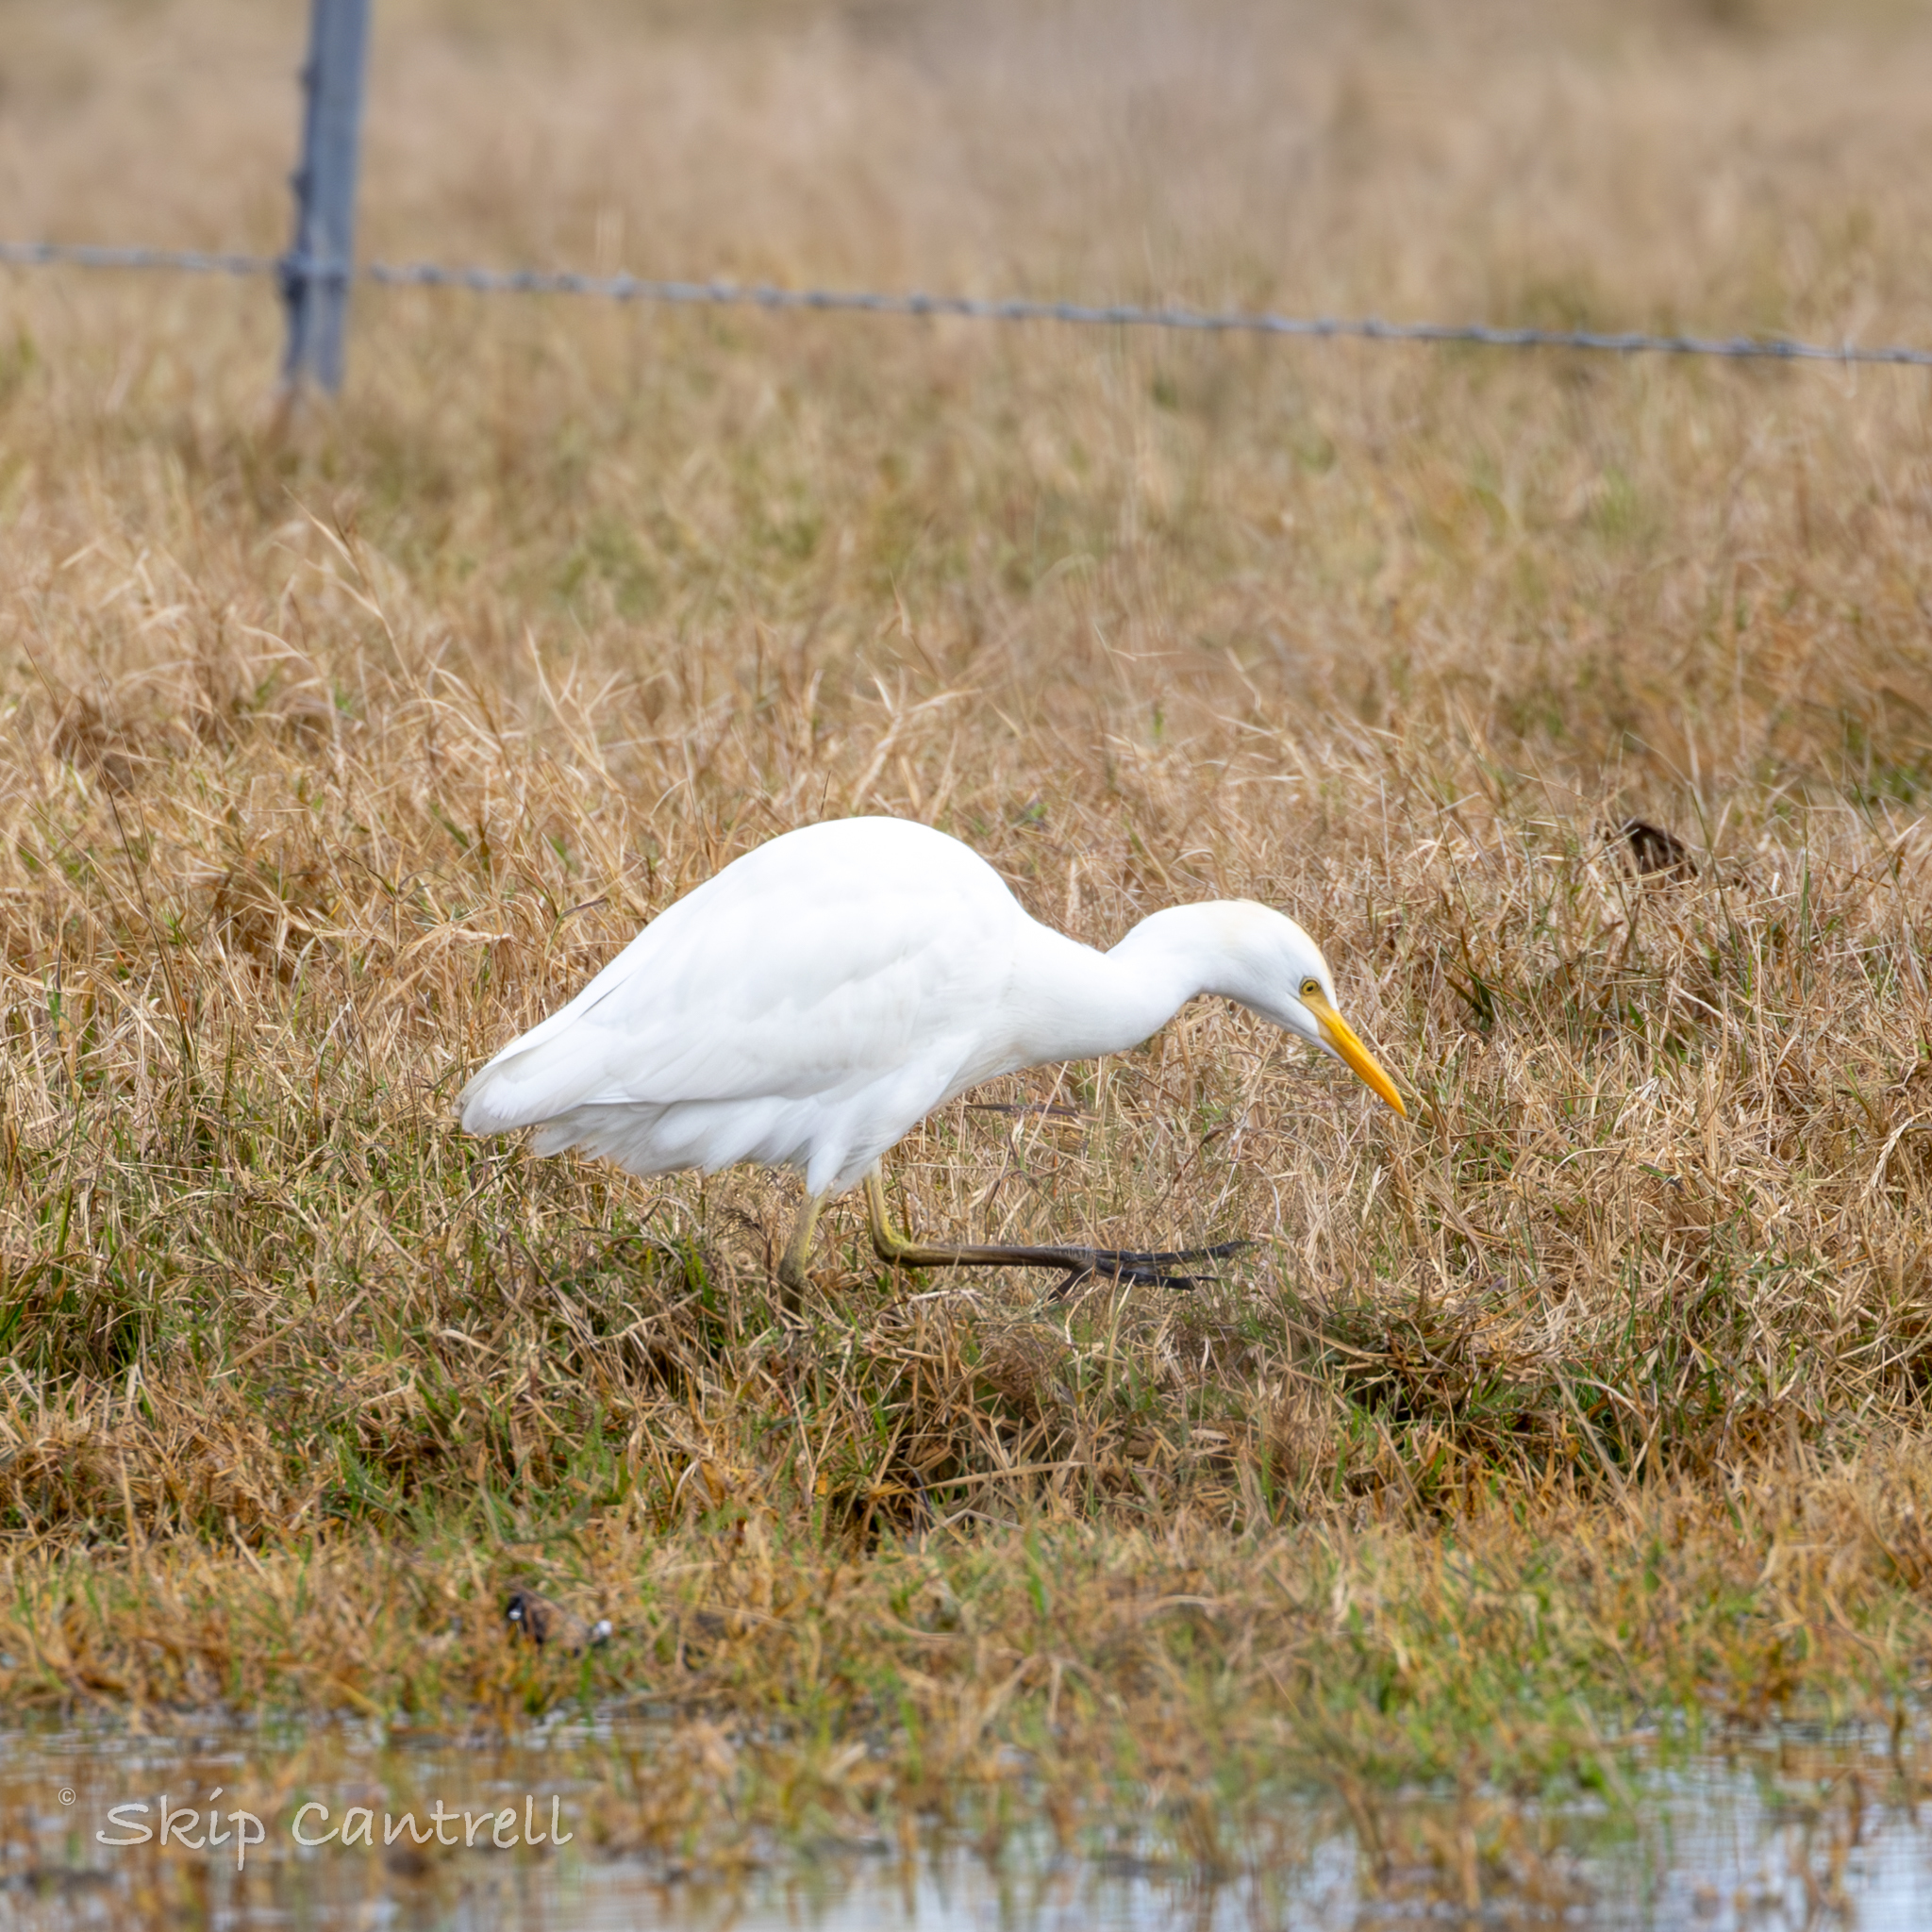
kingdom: Animalia
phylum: Chordata
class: Aves
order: Pelecaniformes
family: Ardeidae
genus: Bubulcus
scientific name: Bubulcus ibis
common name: Cattle egret
